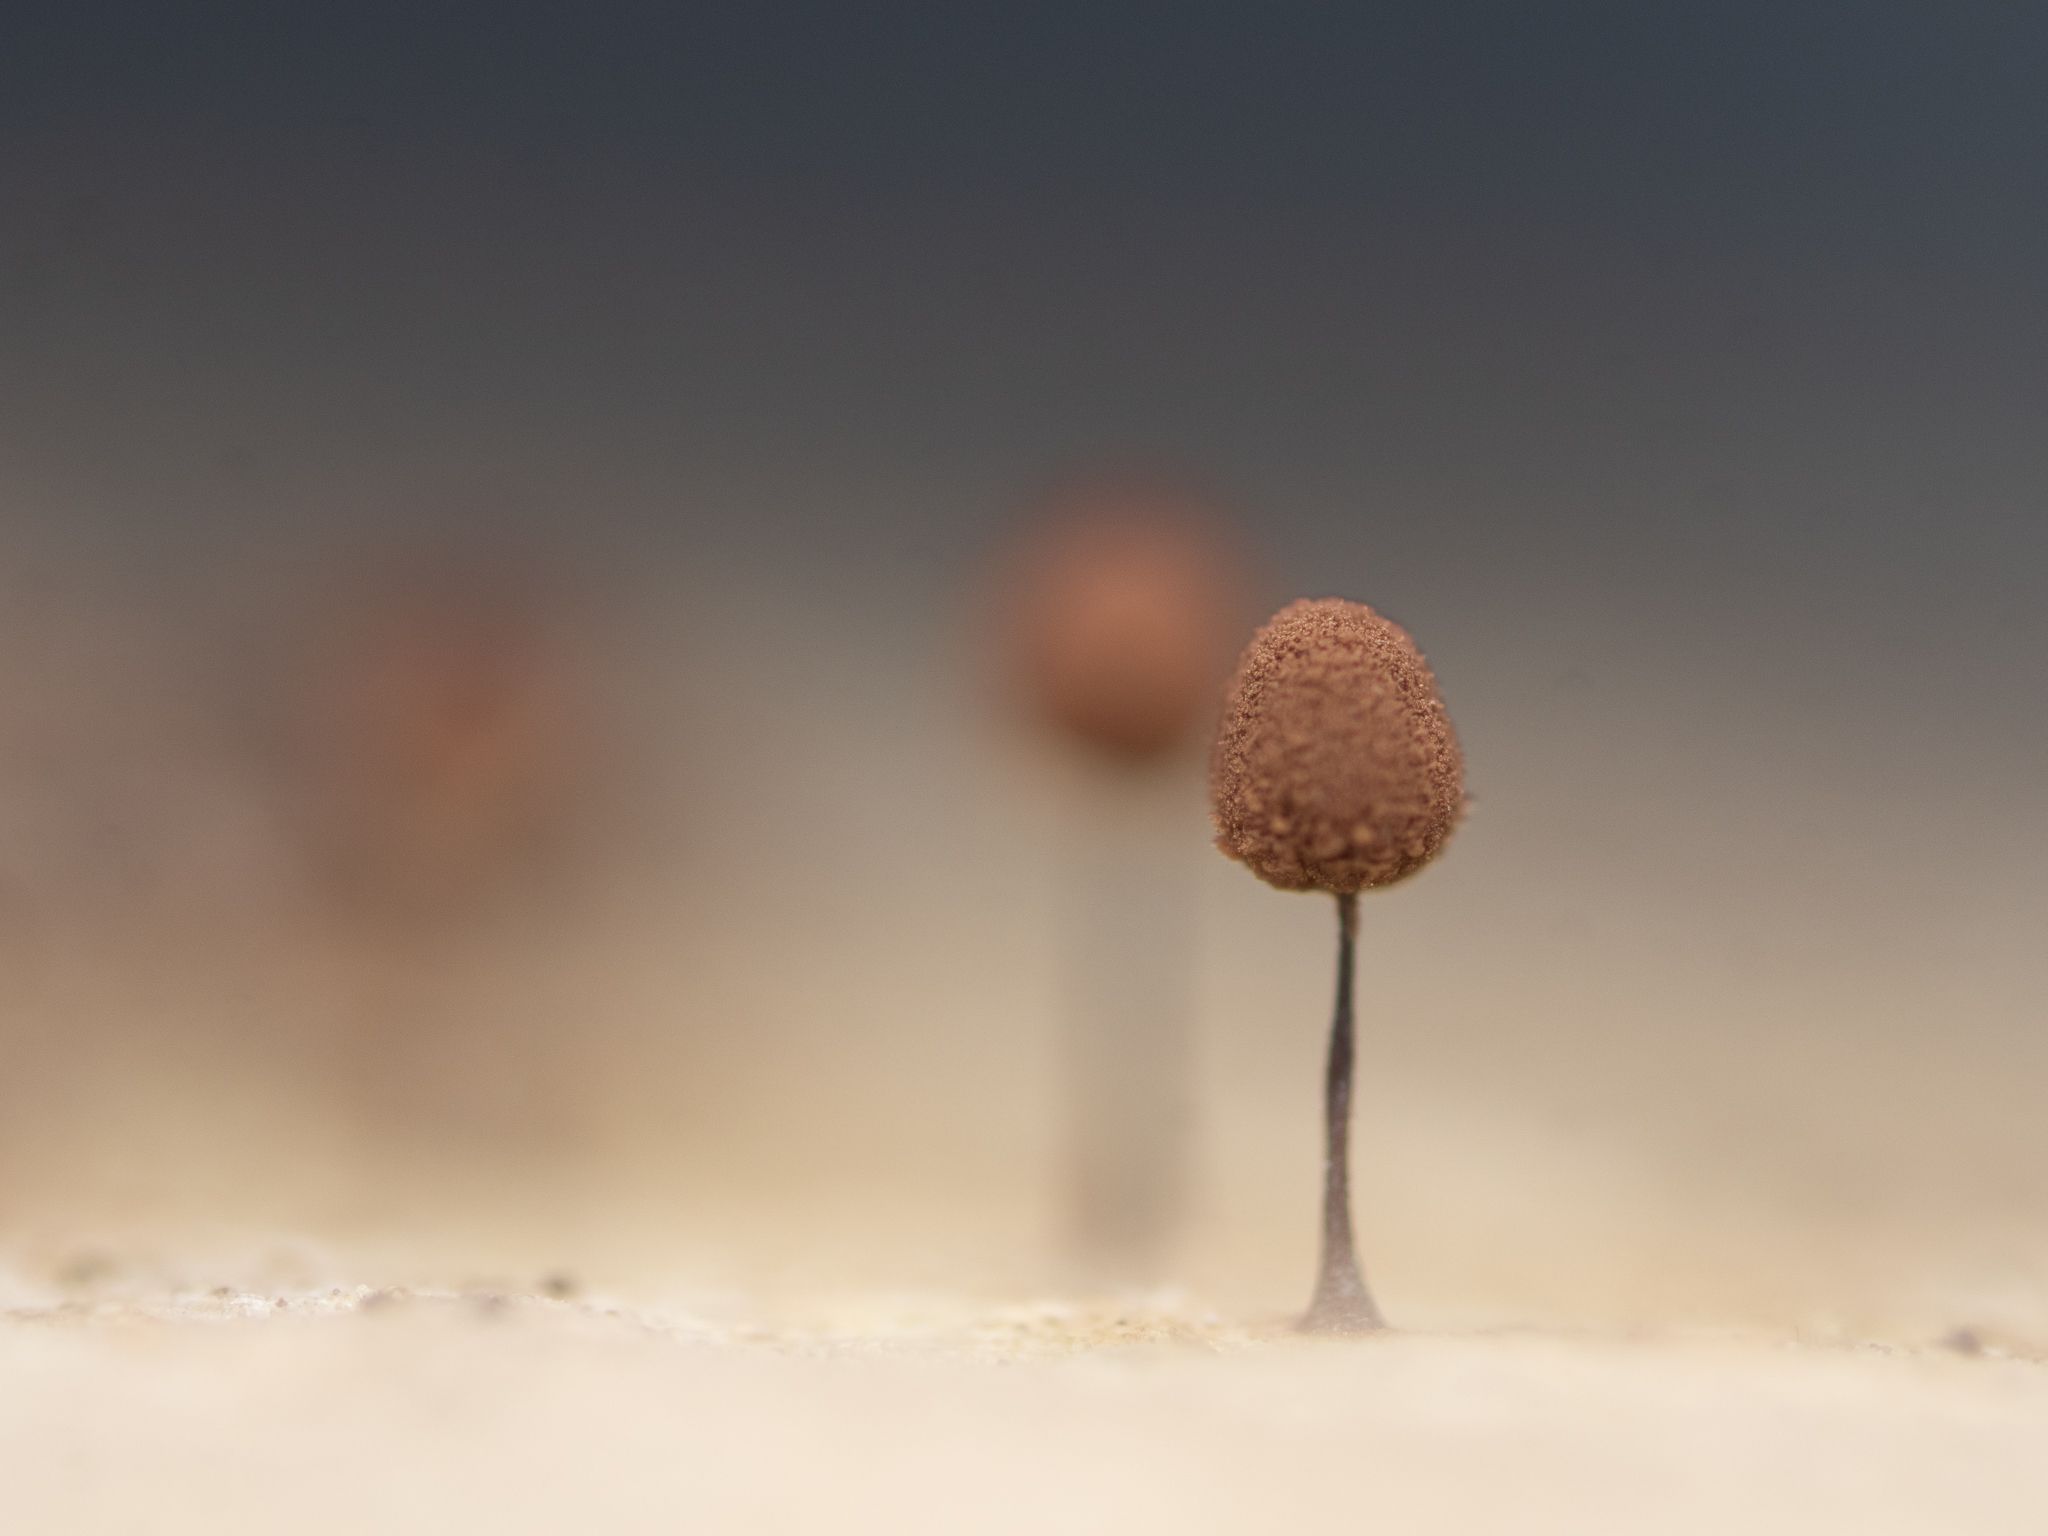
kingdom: Protozoa
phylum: Mycetozoa
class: Myxomycetes
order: Stemonitidales
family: Stemonitidaceae
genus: Comatricha
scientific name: Comatricha nigra
